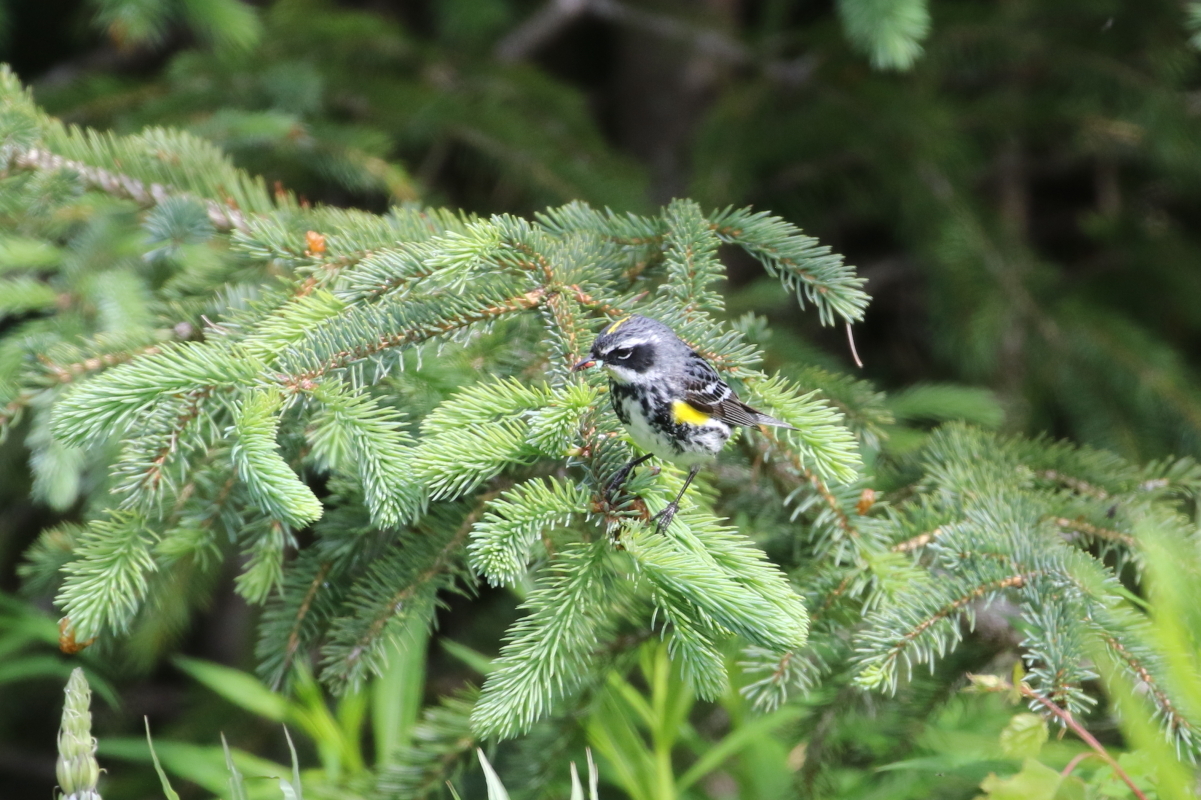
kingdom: Animalia
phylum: Chordata
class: Aves
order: Passeriformes
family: Parulidae
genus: Setophaga
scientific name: Setophaga coronata
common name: Myrtle warbler
